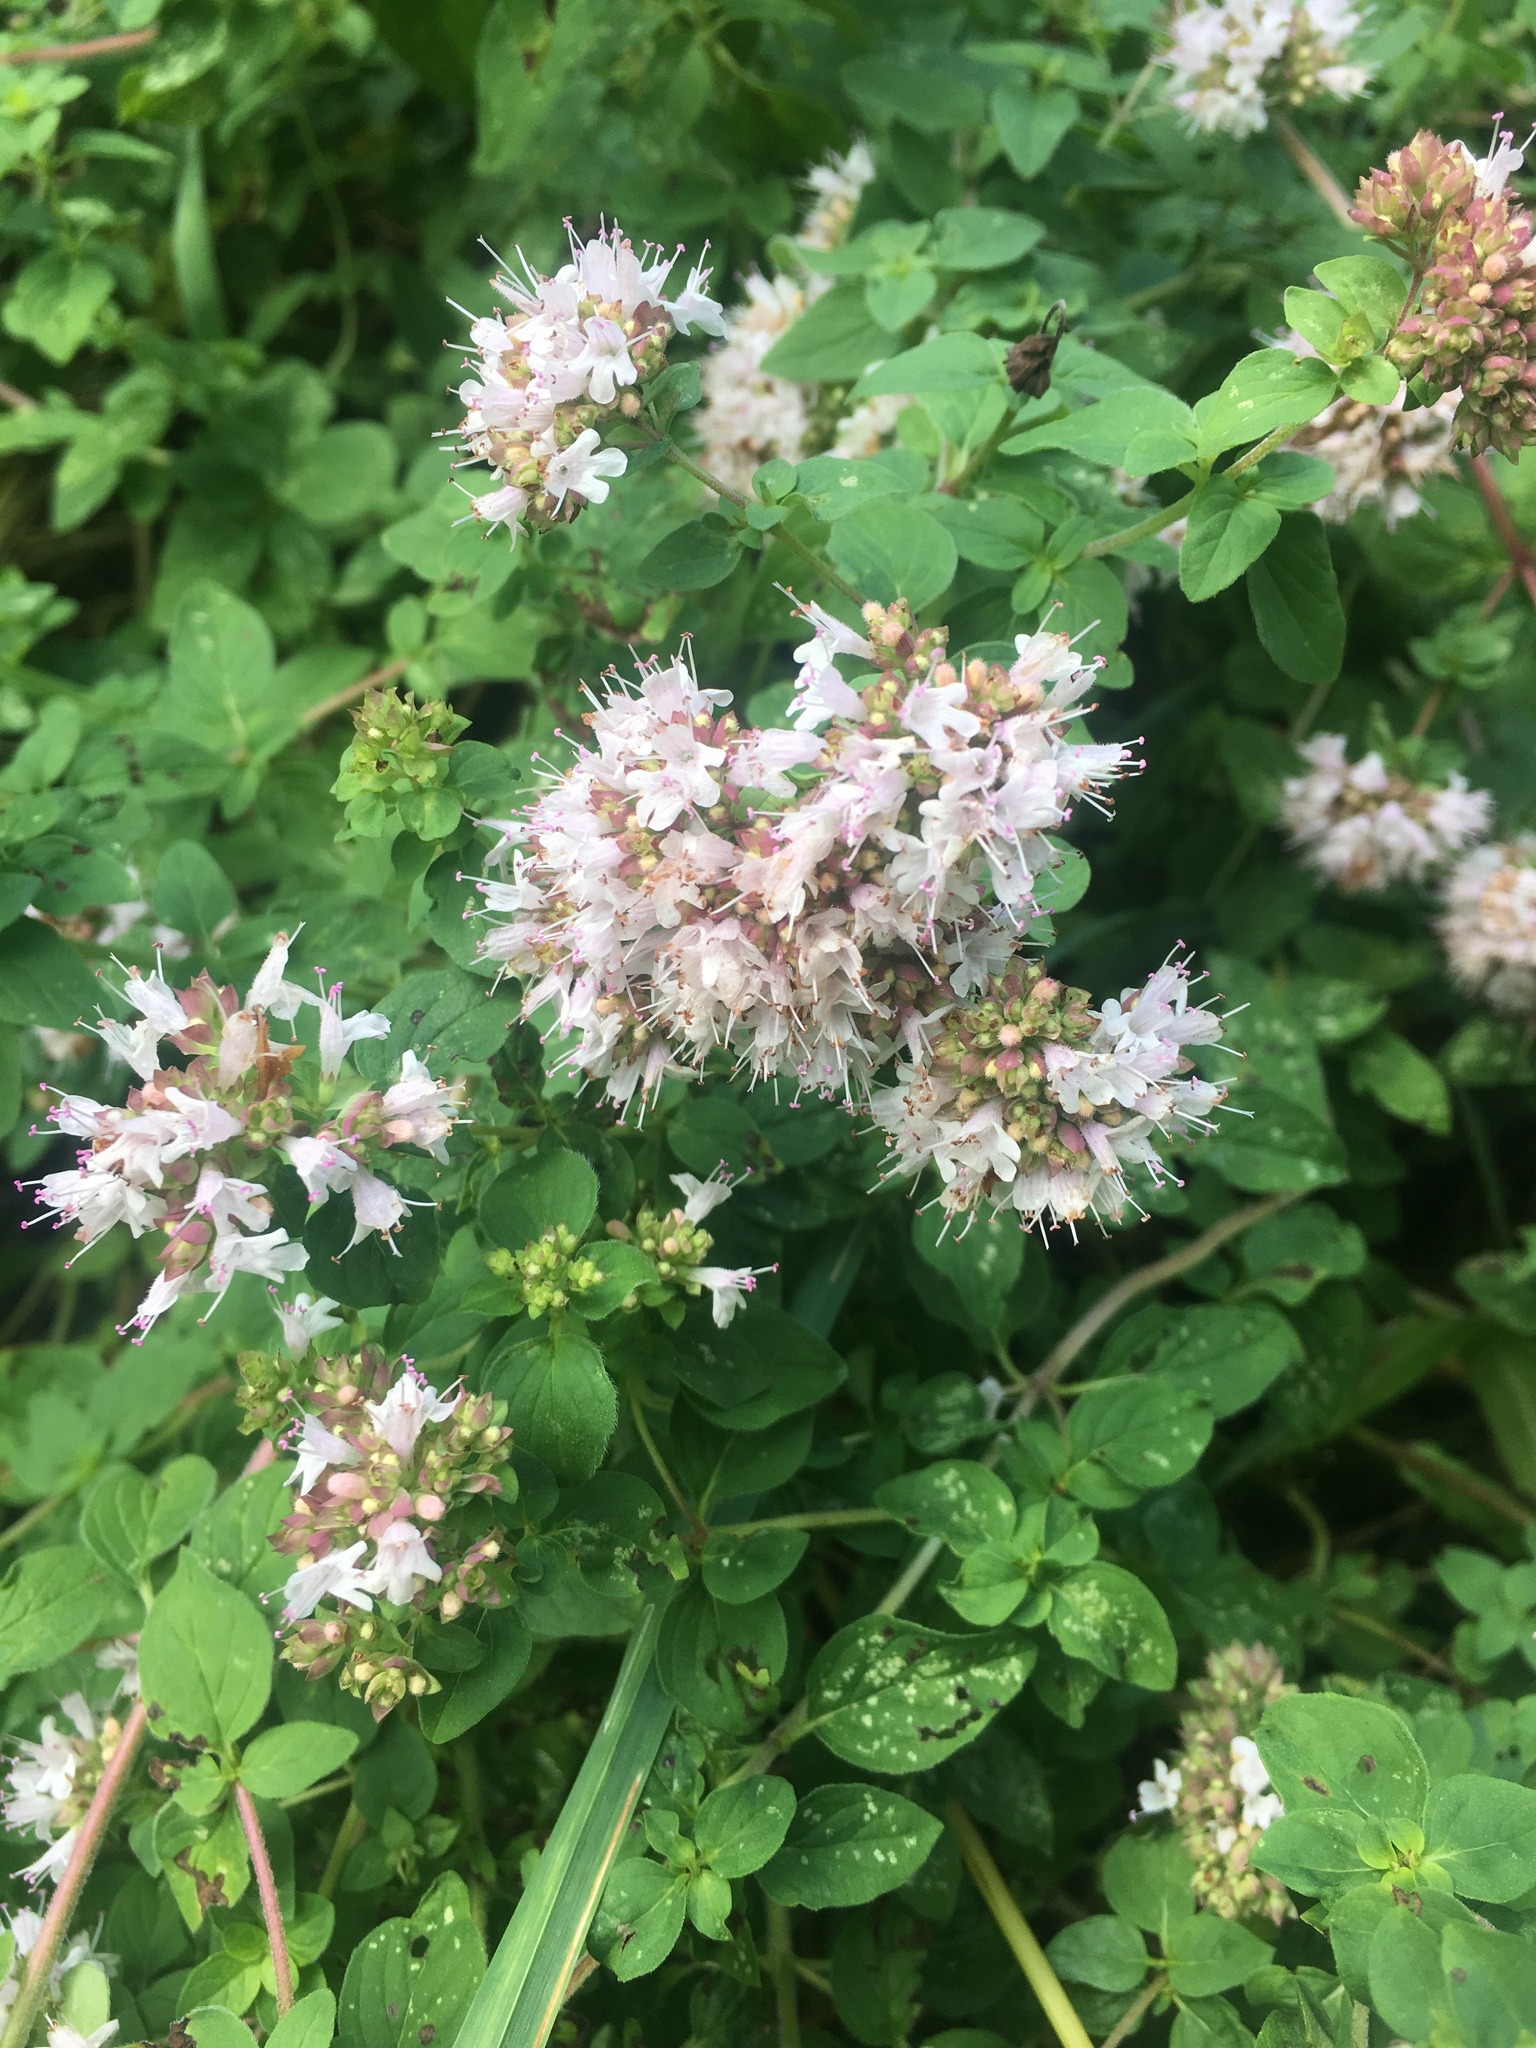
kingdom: Plantae
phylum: Tracheophyta
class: Magnoliopsida
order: Lamiales
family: Lamiaceae
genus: Origanum
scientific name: Origanum vulgare
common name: Wild marjoram
